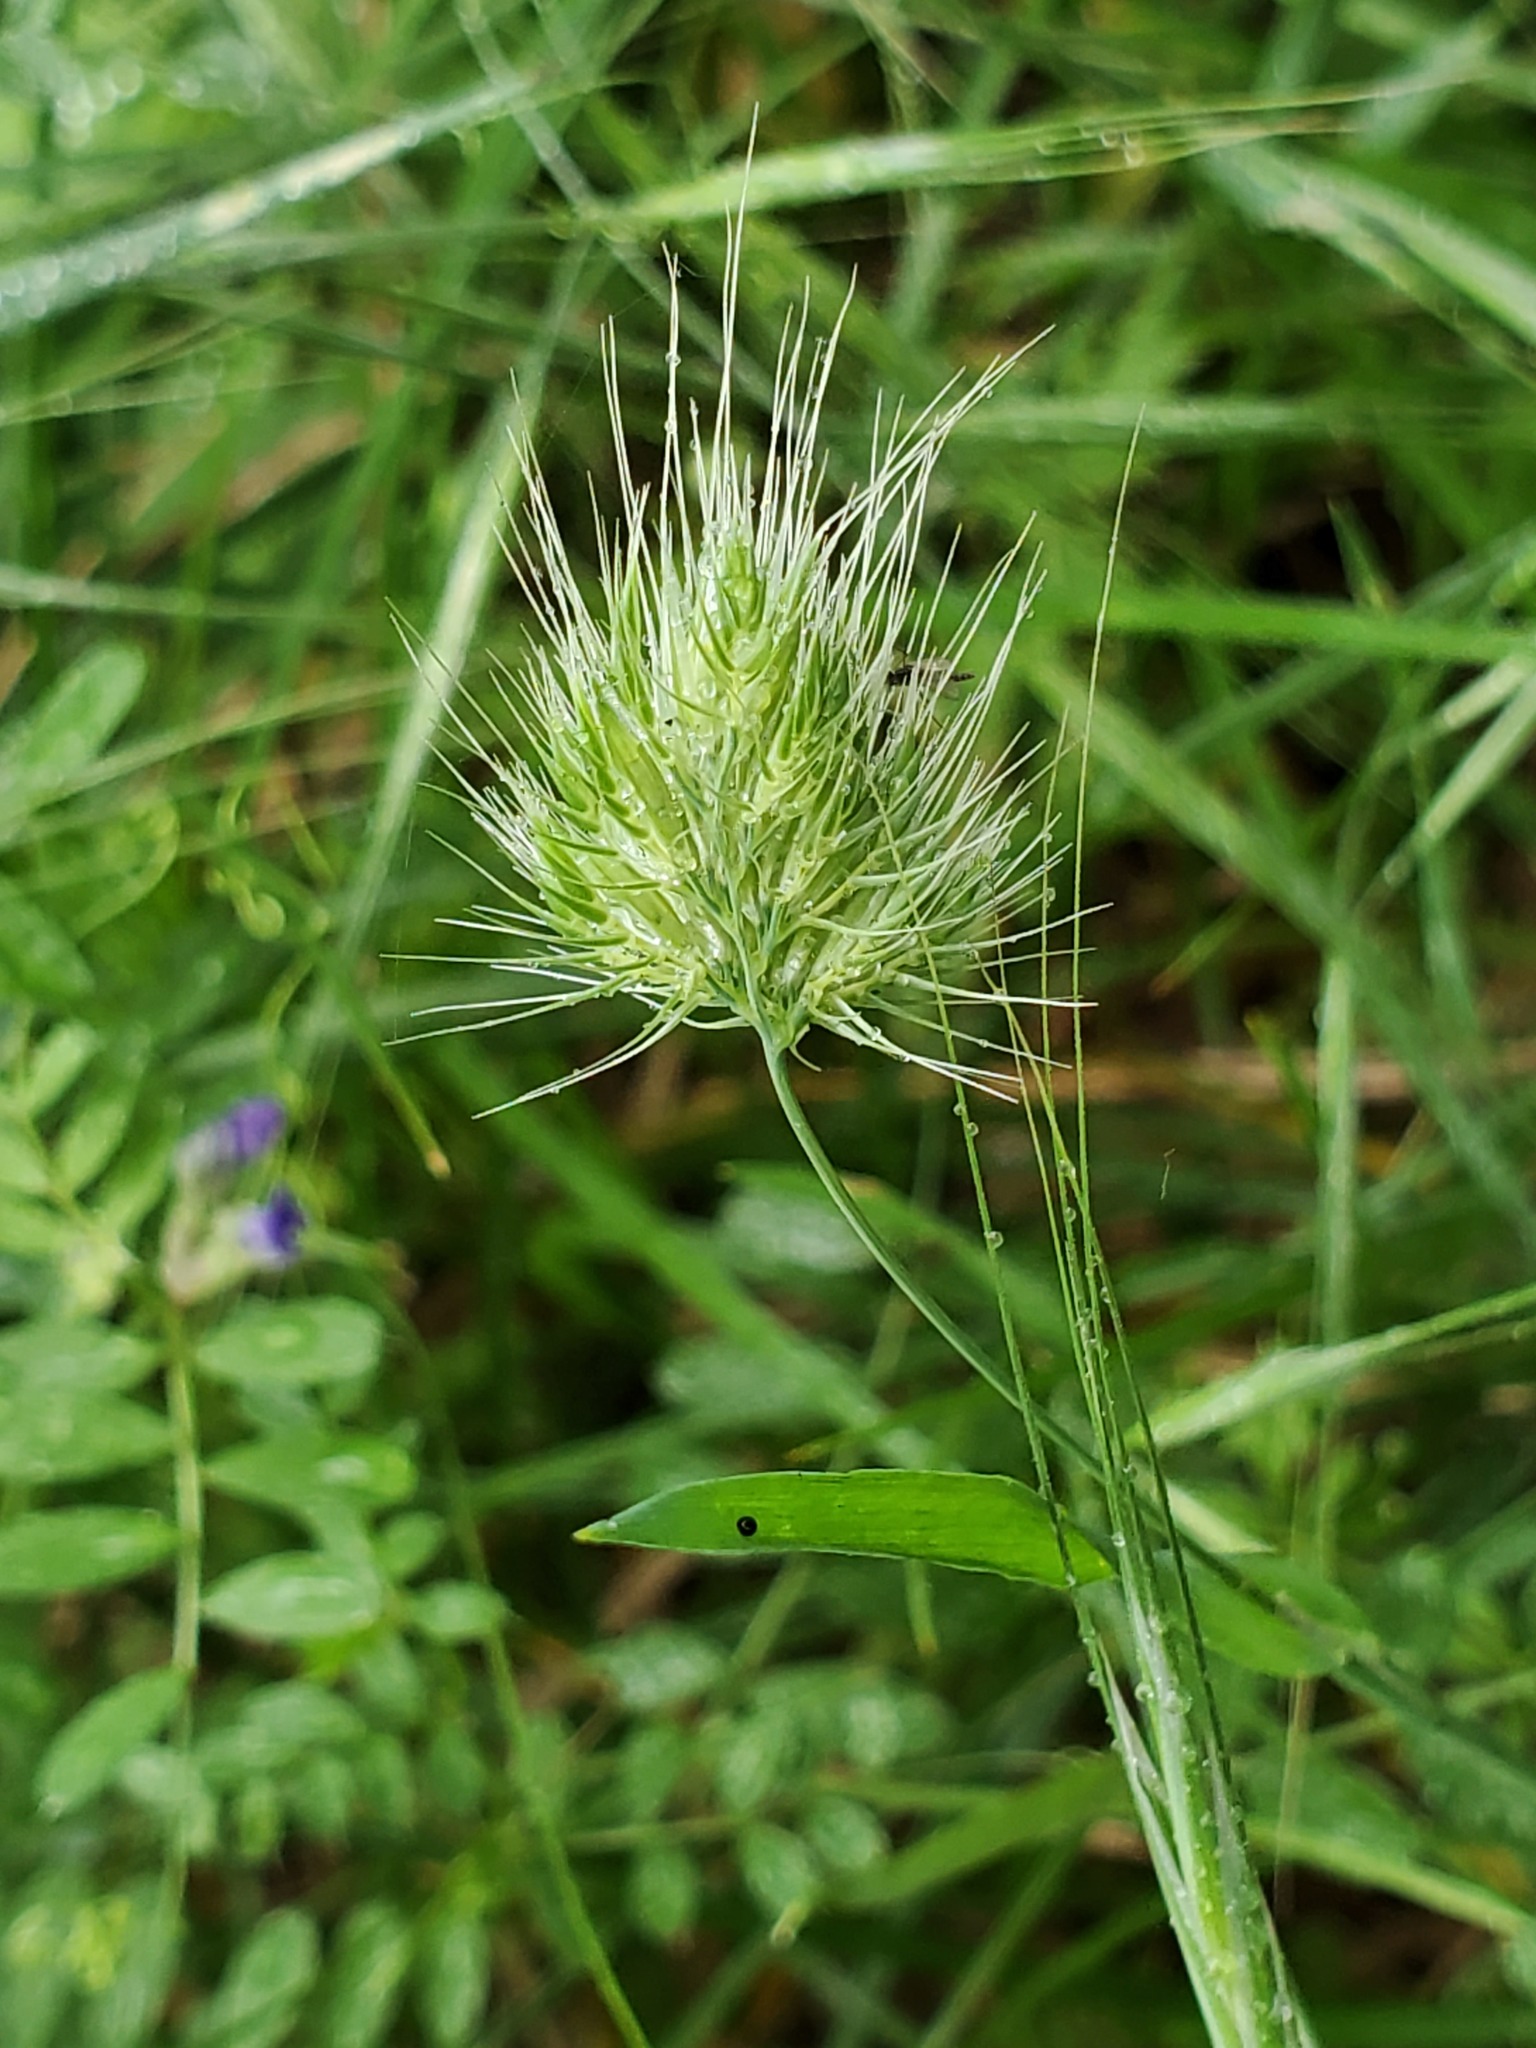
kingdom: Plantae
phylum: Tracheophyta
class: Liliopsida
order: Poales
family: Poaceae
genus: Cynosurus
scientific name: Cynosurus echinatus
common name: Rough dog's-tail
